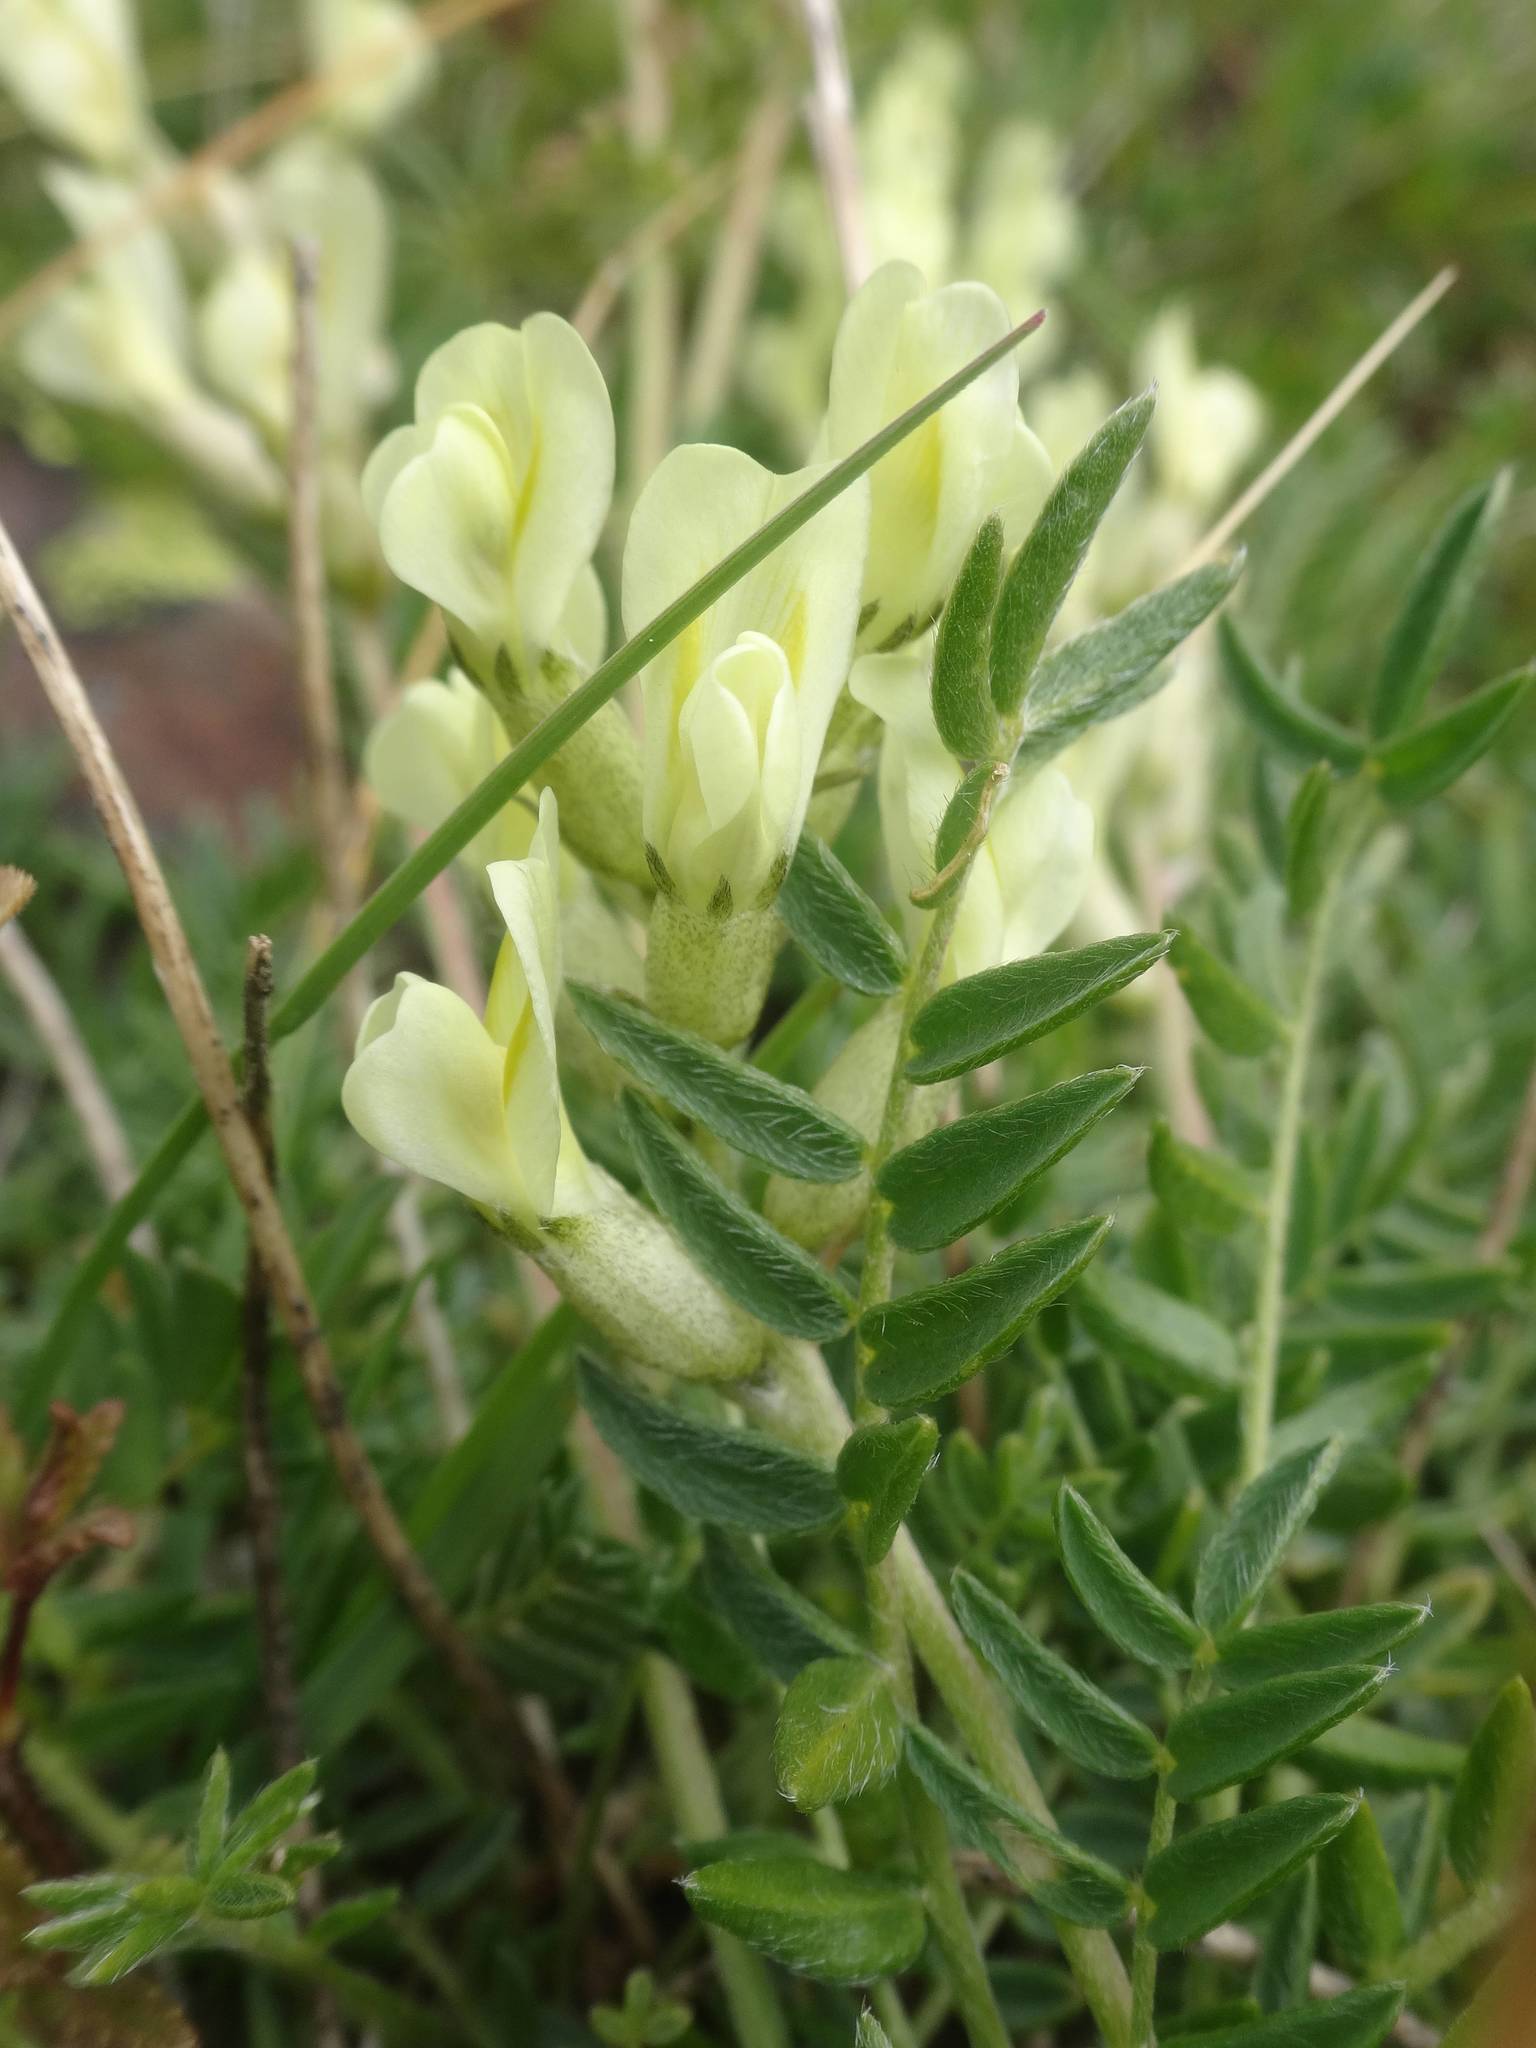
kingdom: Plantae
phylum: Tracheophyta
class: Magnoliopsida
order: Fabales
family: Fabaceae
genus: Oxytropis
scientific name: Oxytropis campestris
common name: Field locoweed
